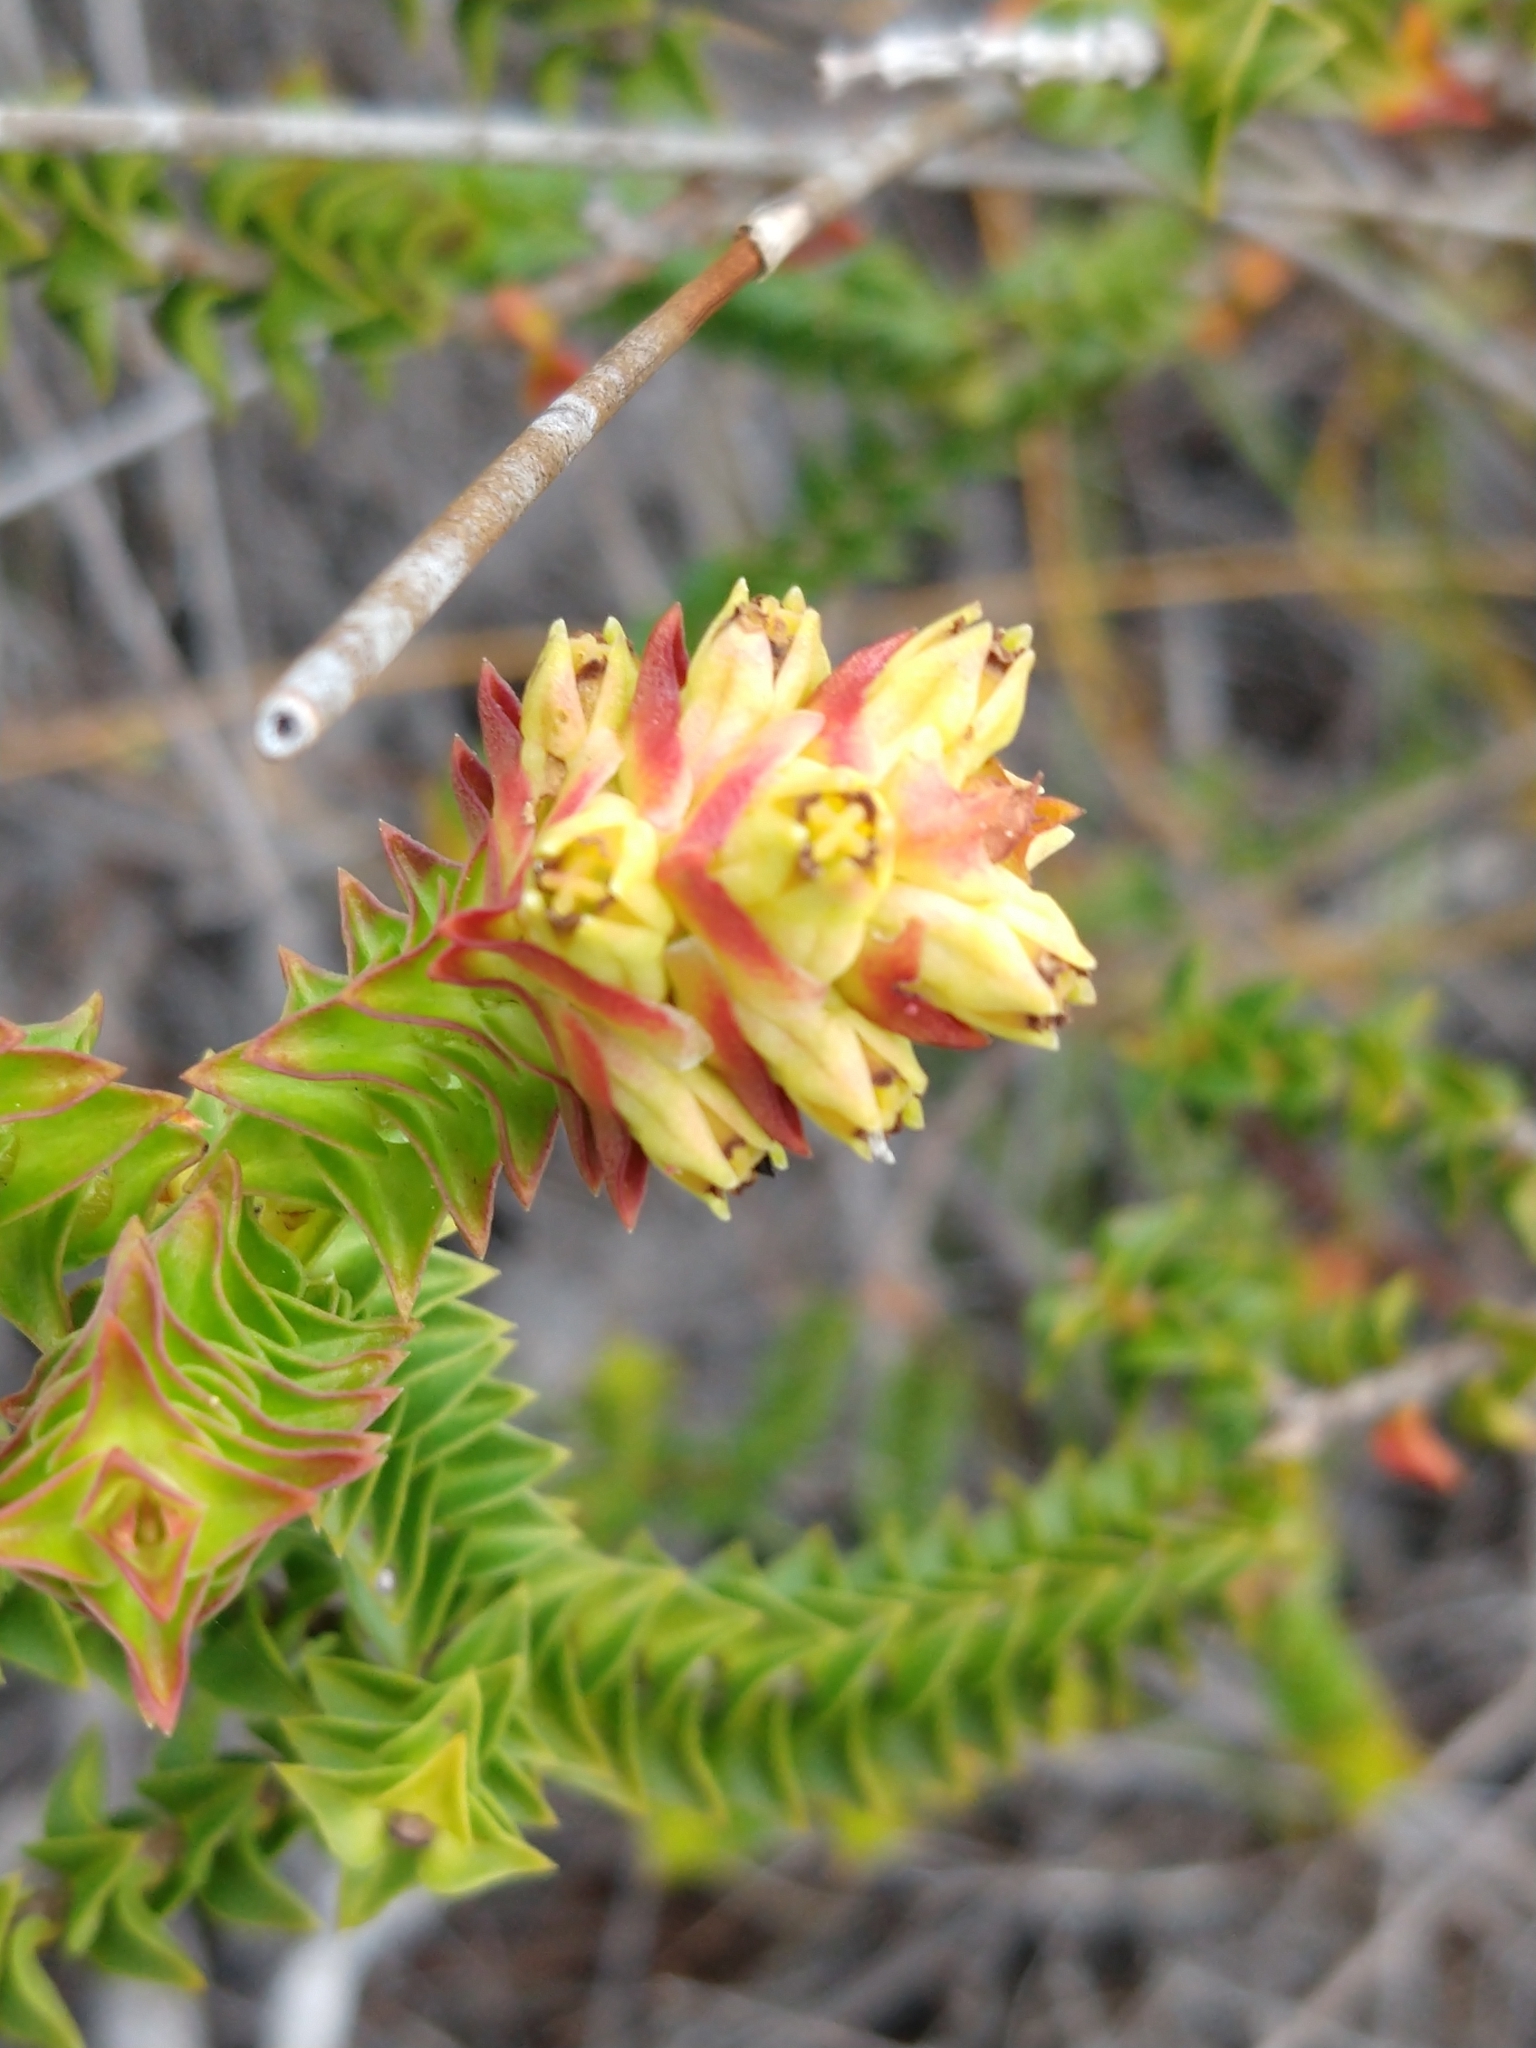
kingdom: Plantae
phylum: Tracheophyta
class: Magnoliopsida
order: Myrtales
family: Penaeaceae
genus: Penaea
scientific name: Penaea mucronata
